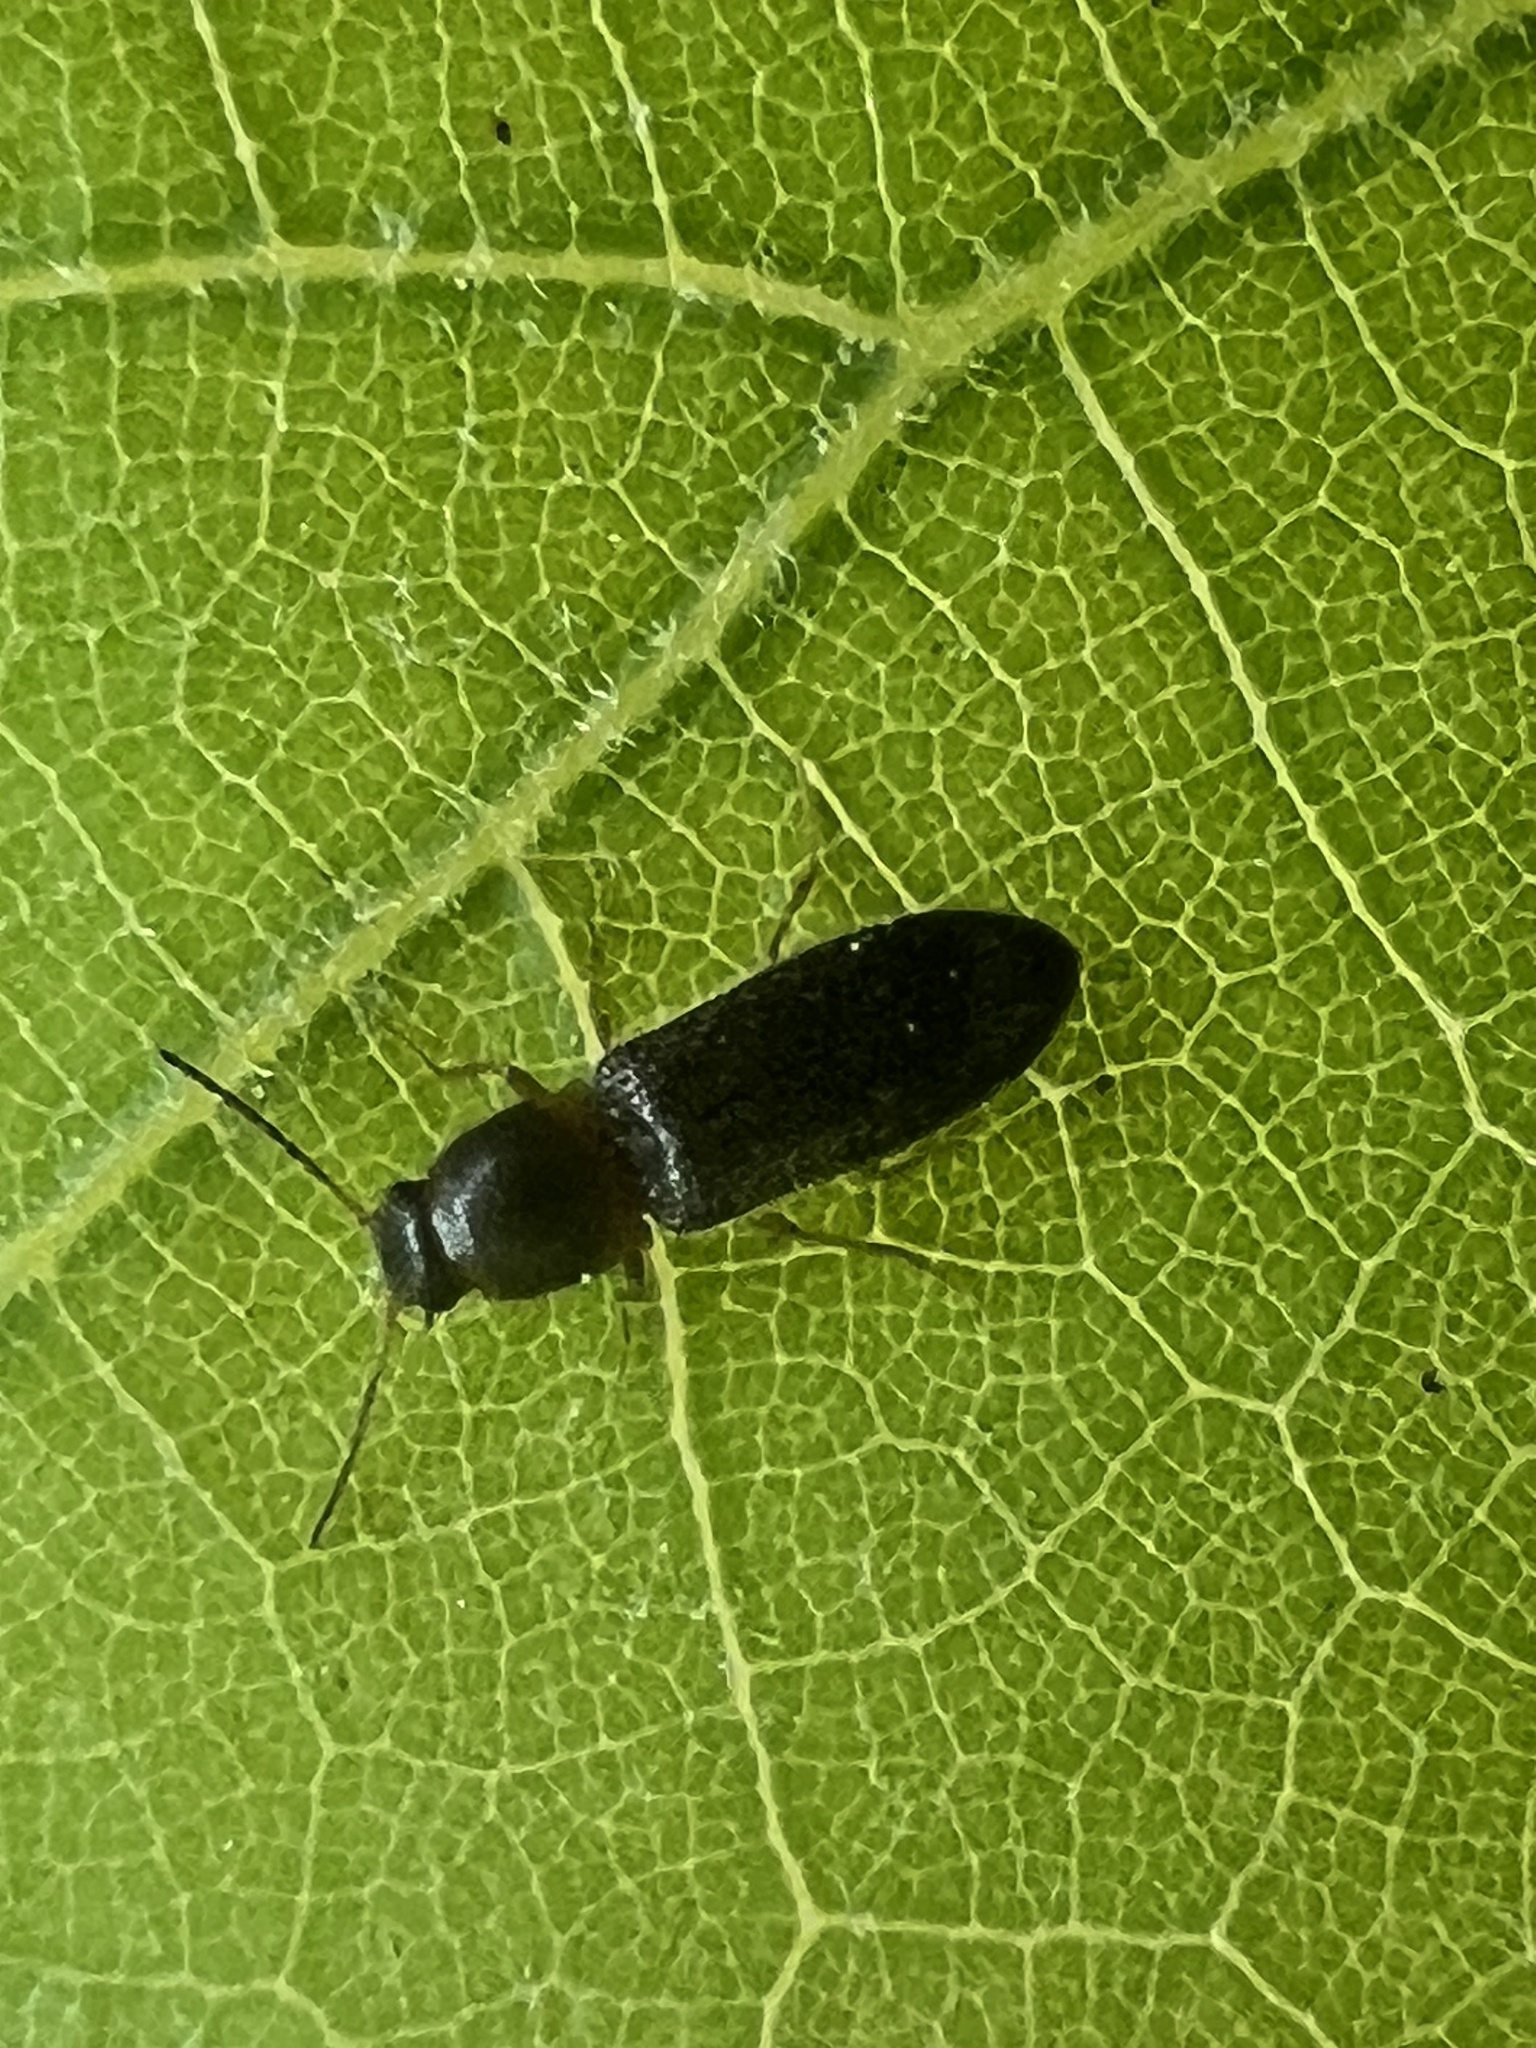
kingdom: Animalia
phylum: Arthropoda
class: Insecta
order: Coleoptera
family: Elateridae
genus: Tetralimonius
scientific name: Tetralimonius
